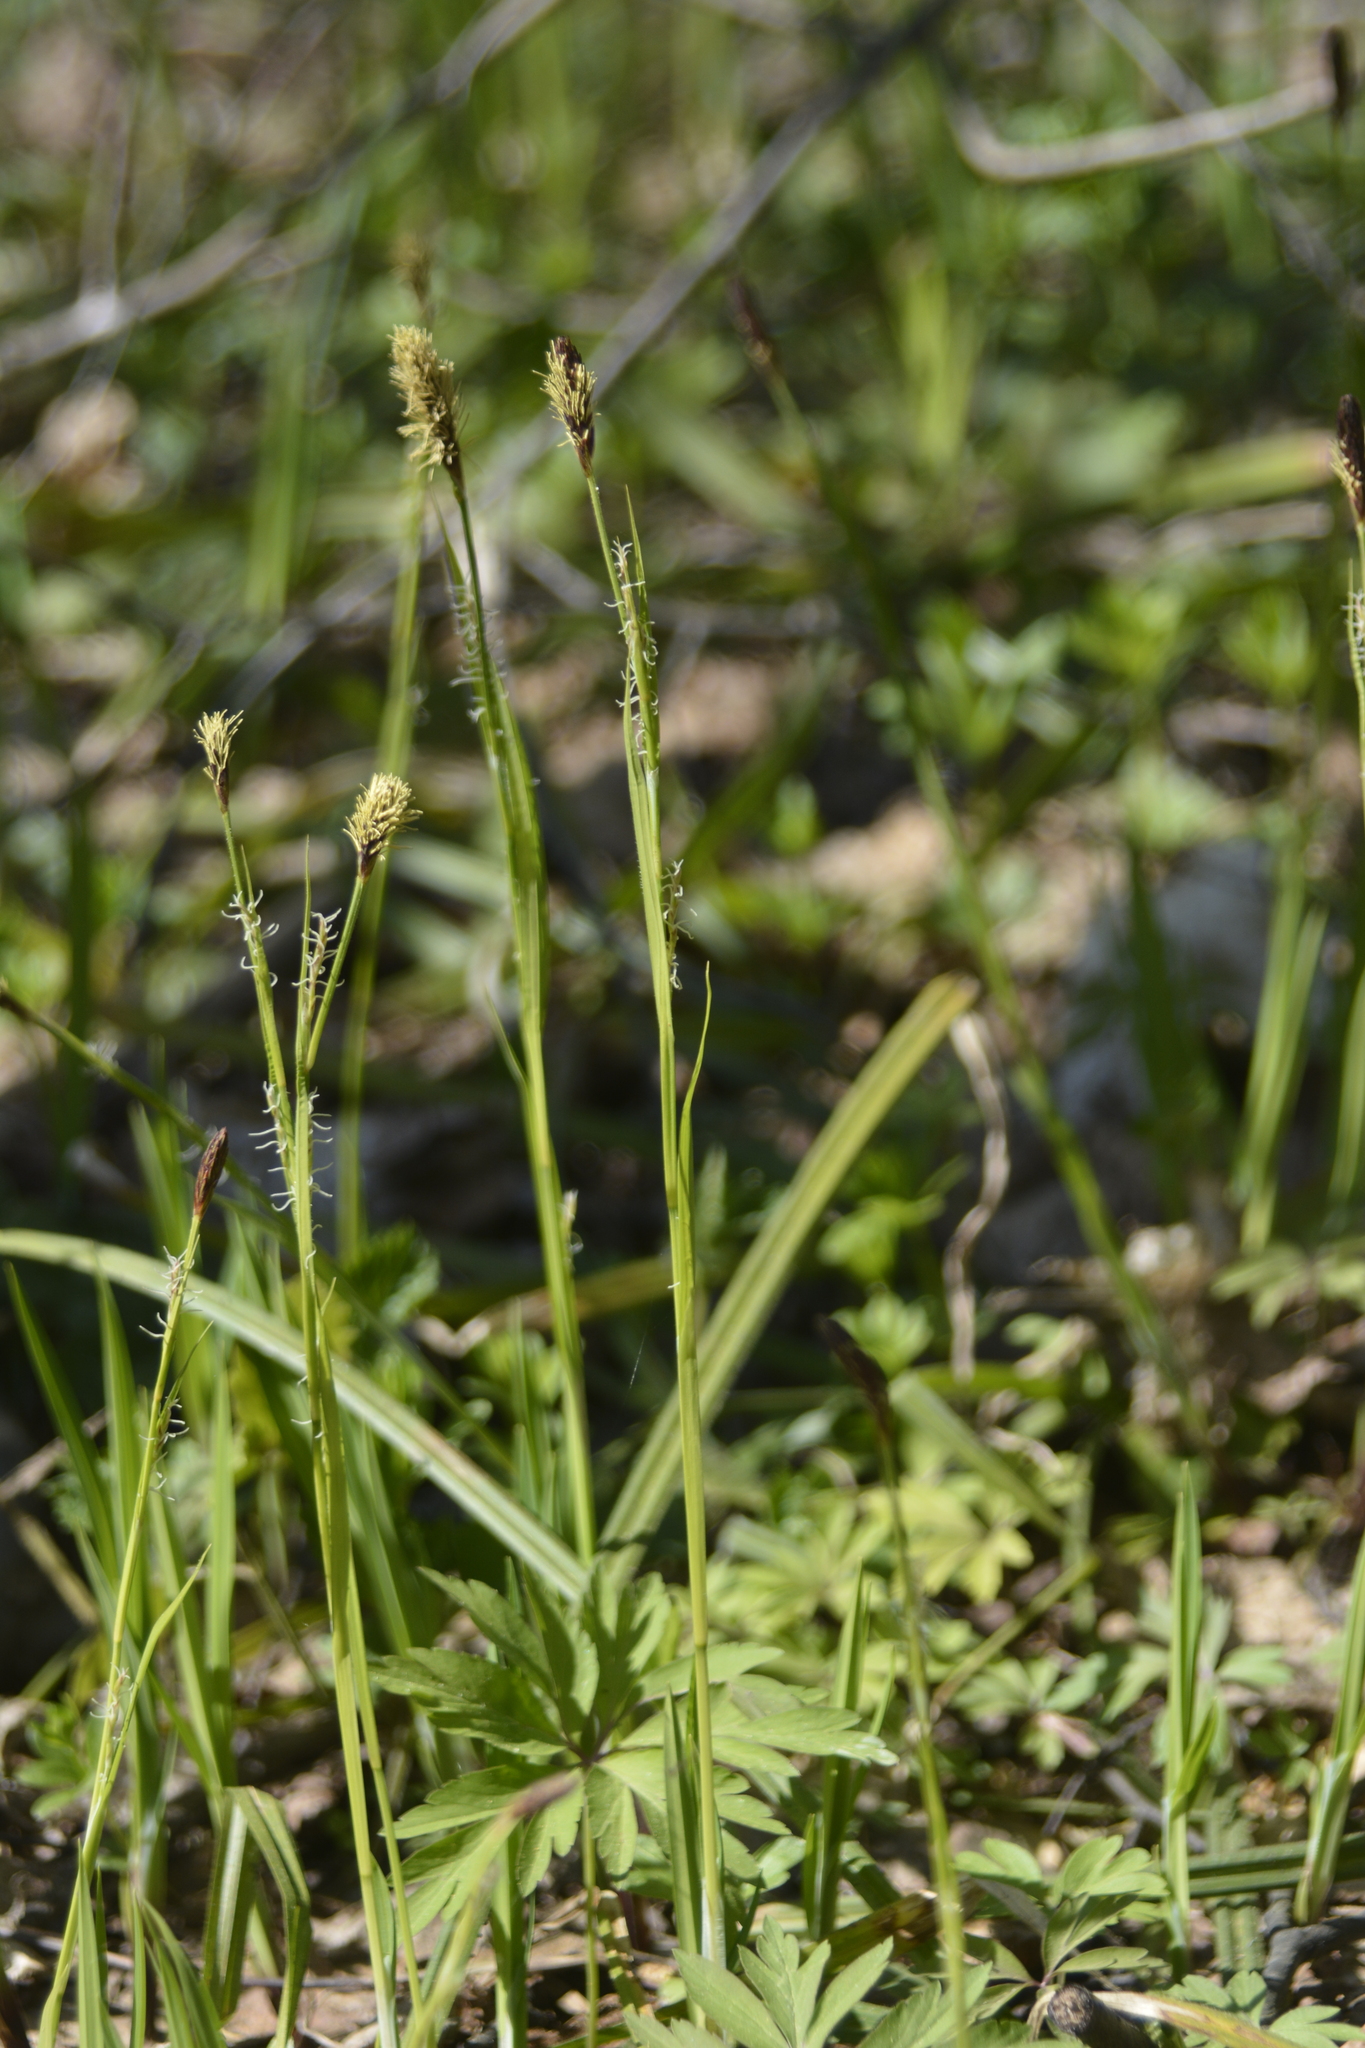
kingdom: Plantae
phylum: Tracheophyta
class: Liliopsida
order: Poales
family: Cyperaceae
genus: Carex
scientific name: Carex pilosa
